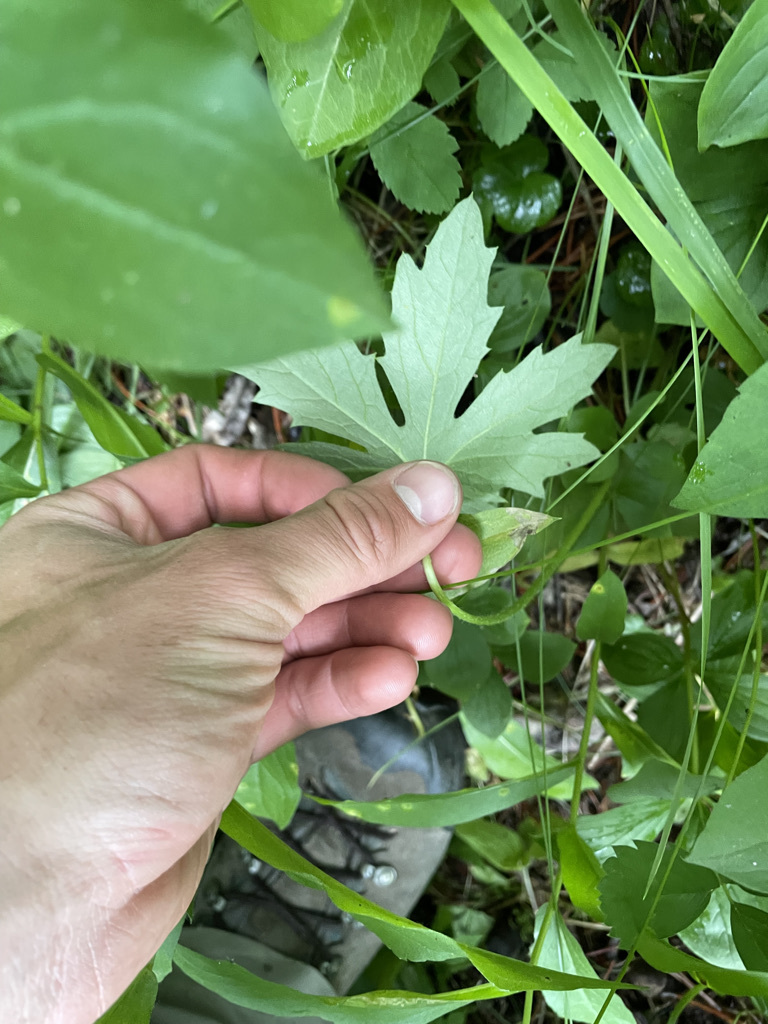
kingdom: Plantae
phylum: Tracheophyta
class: Magnoliopsida
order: Asterales
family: Asteraceae
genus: Petasites
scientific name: Petasites frigidus
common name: Arctic butterbur
